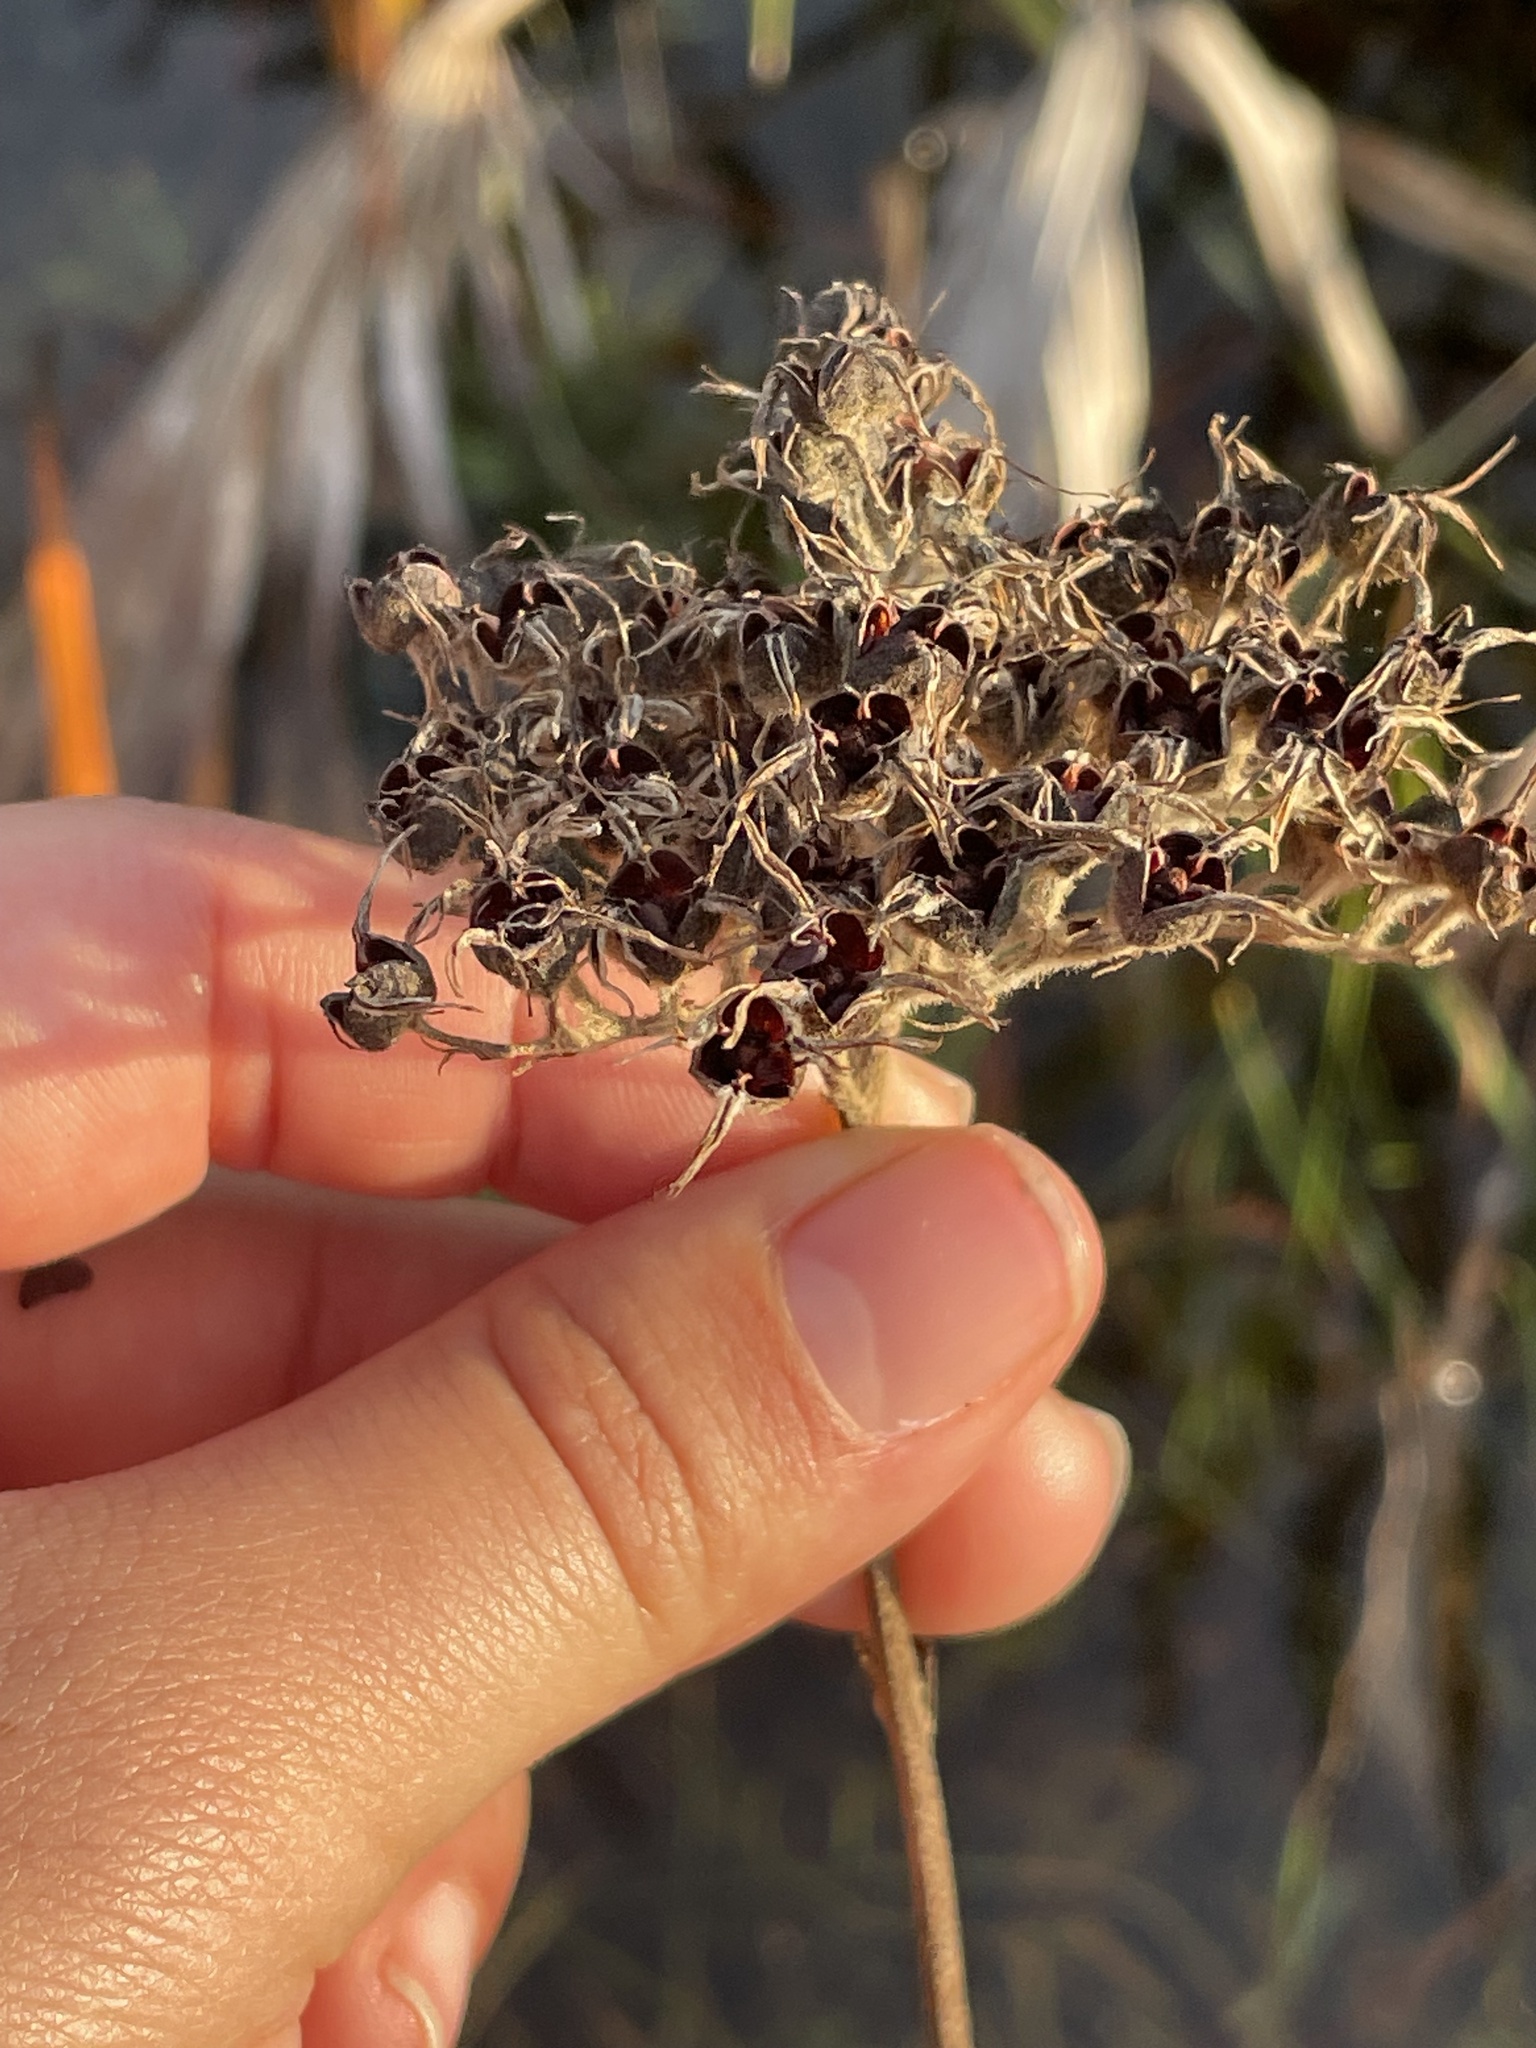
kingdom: Plantae
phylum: Tracheophyta
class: Liliopsida
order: Commelinales
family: Haemodoraceae
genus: Lachnanthes
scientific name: Lachnanthes caroliana
